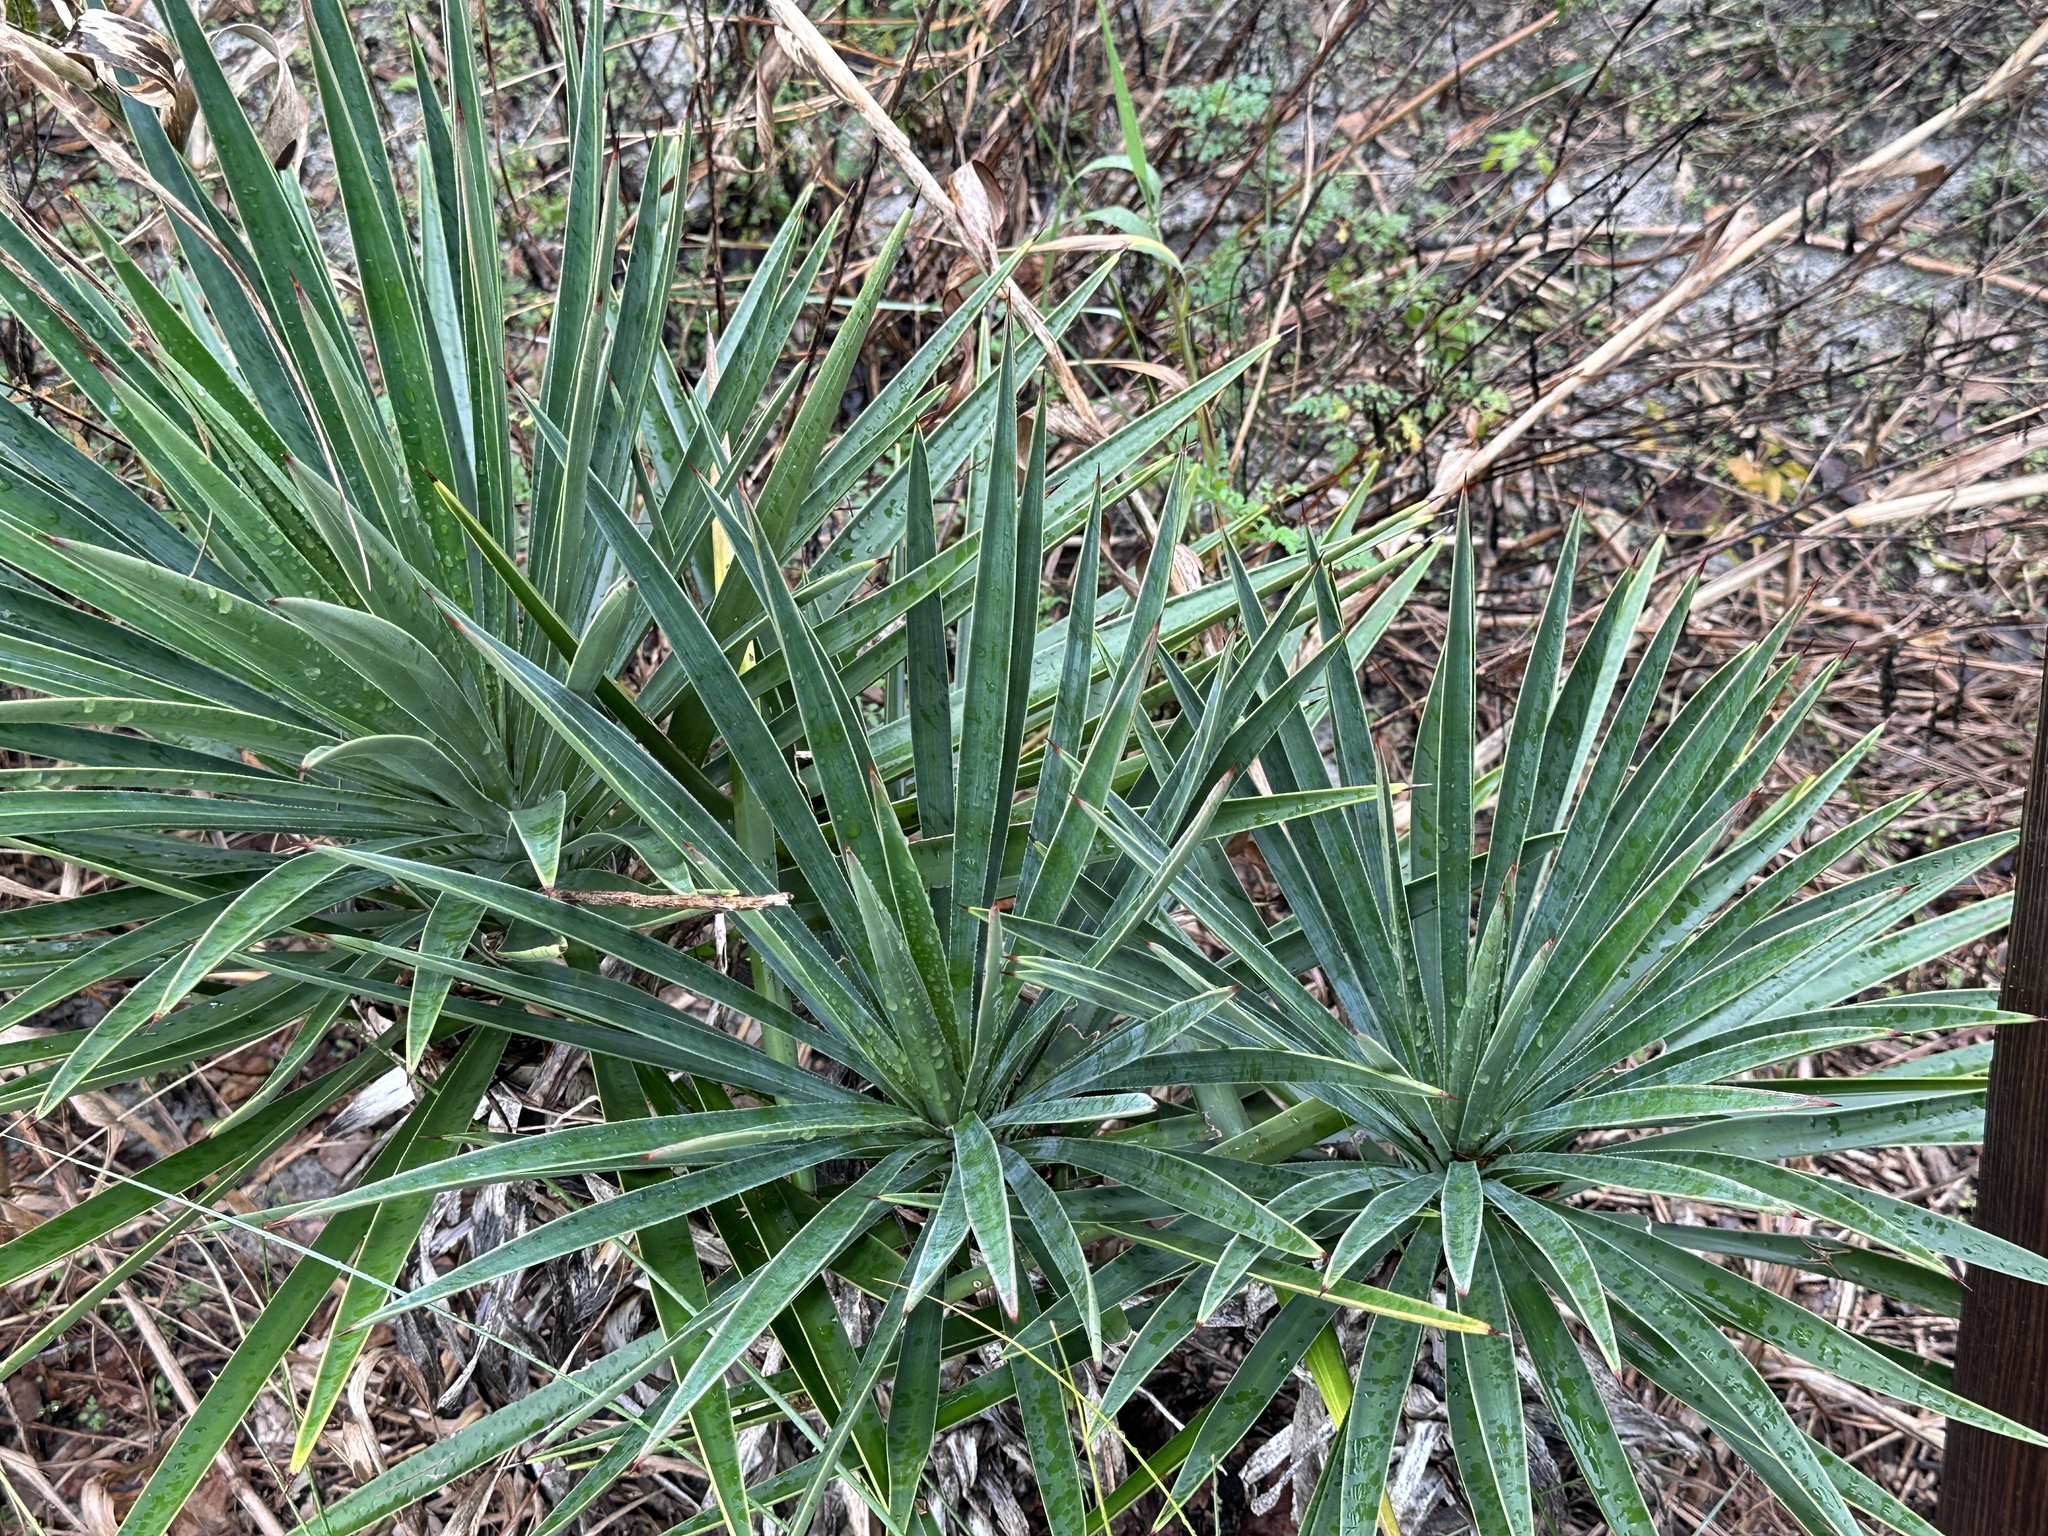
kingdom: Plantae
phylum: Tracheophyta
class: Liliopsida
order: Asparagales
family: Asparagaceae
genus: Yucca
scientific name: Yucca aloifolia
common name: Aloe yucca
